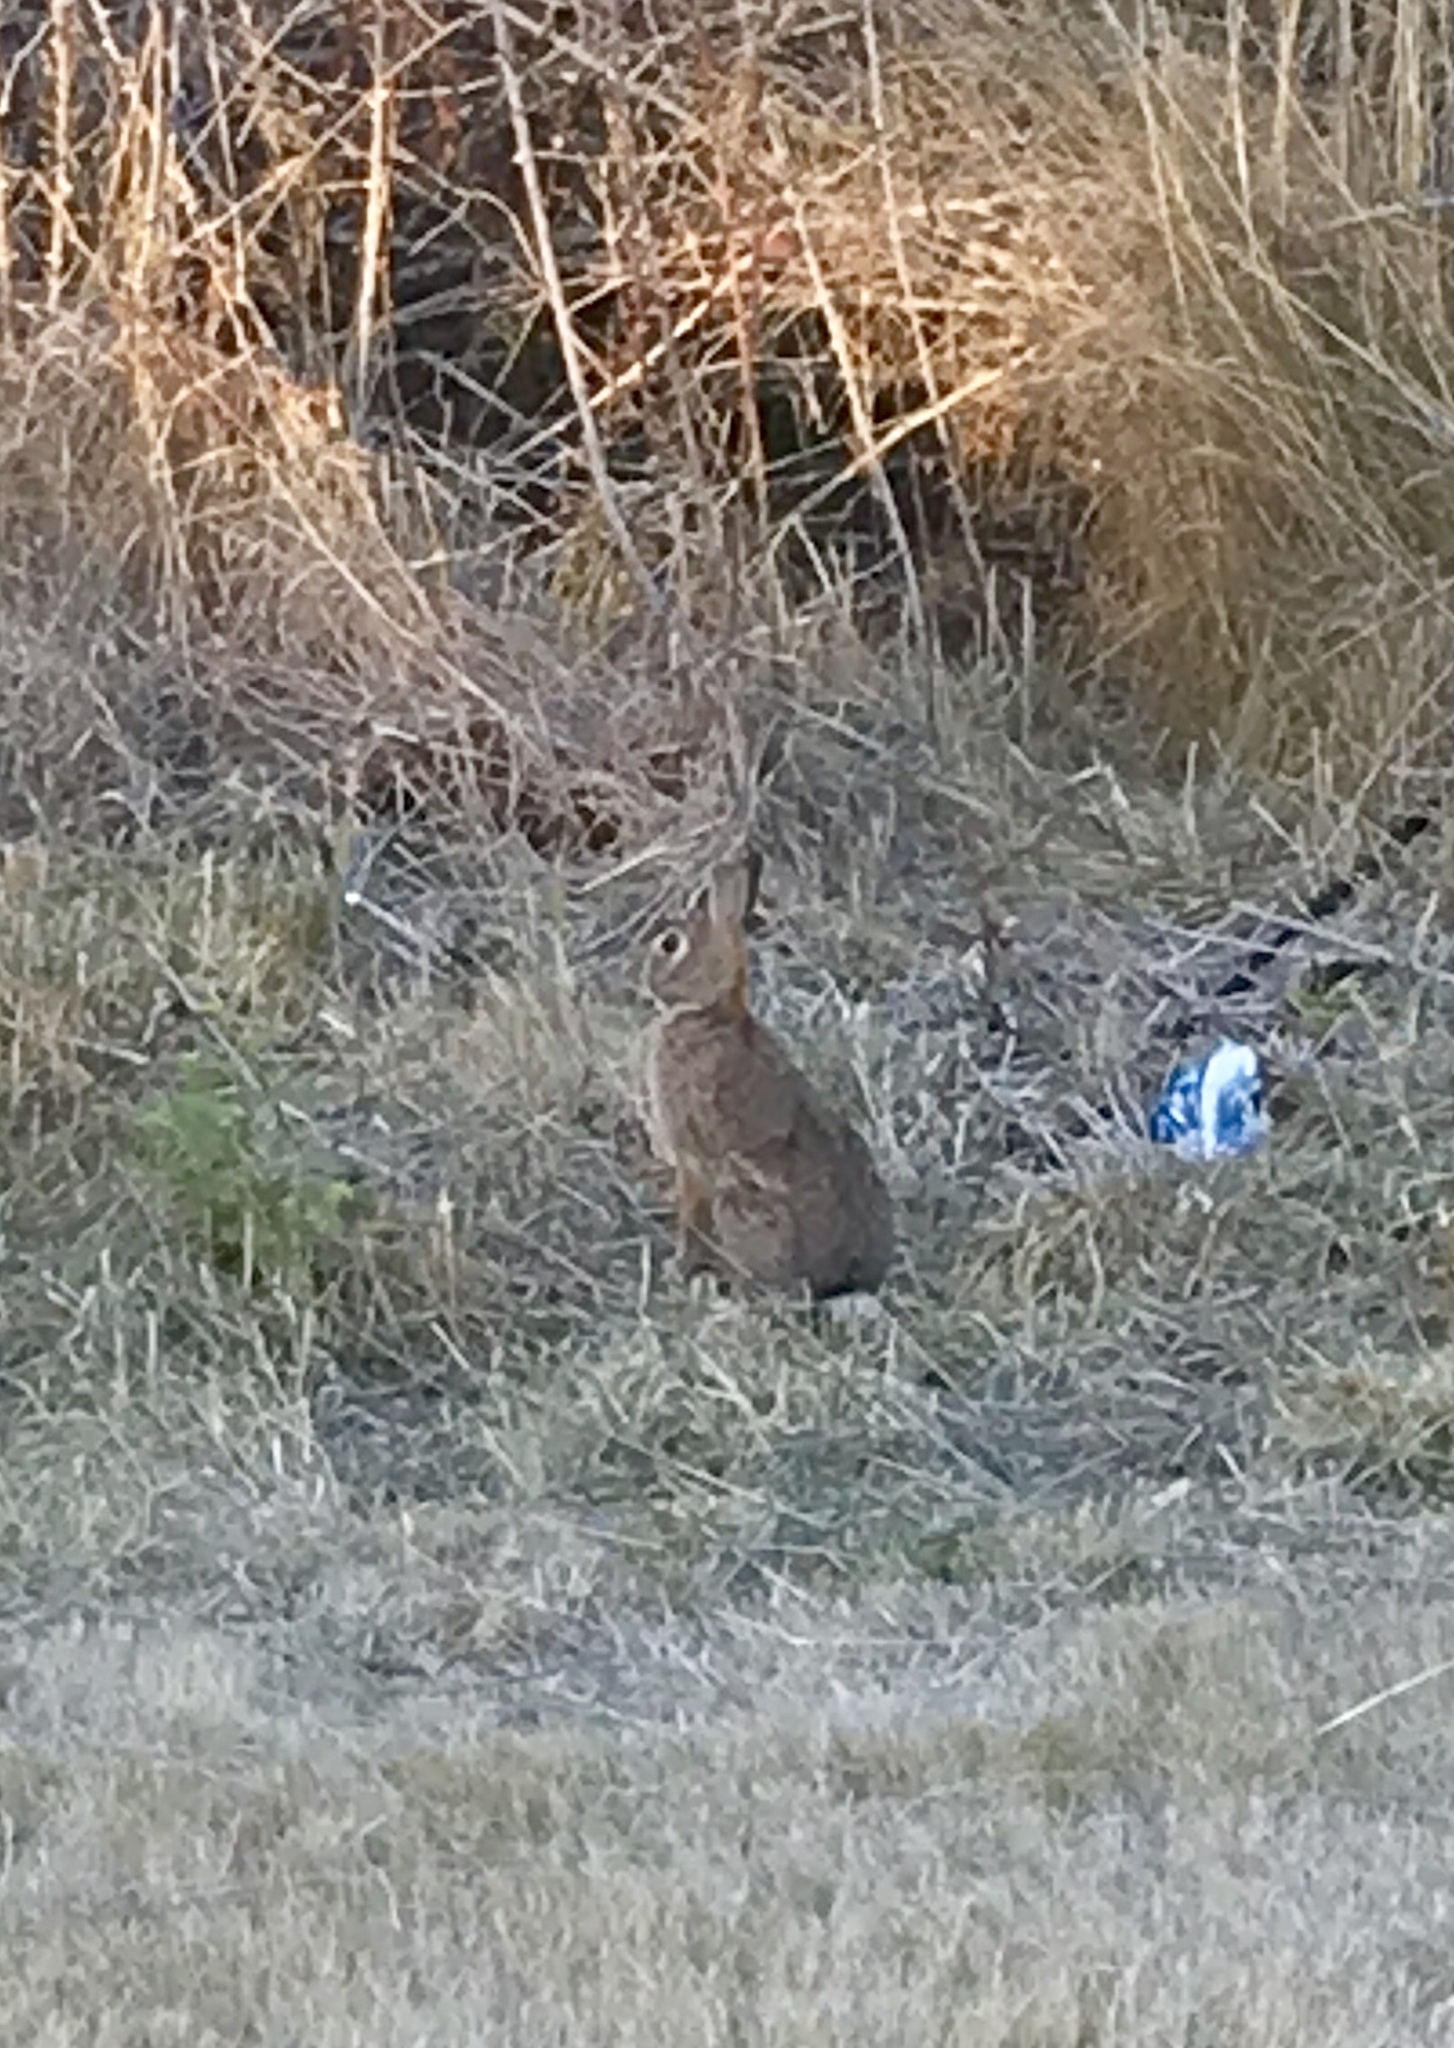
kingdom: Animalia
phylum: Chordata
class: Mammalia
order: Lagomorpha
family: Leporidae
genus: Sylvilagus
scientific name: Sylvilagus floridanus
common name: Eastern cottontail
